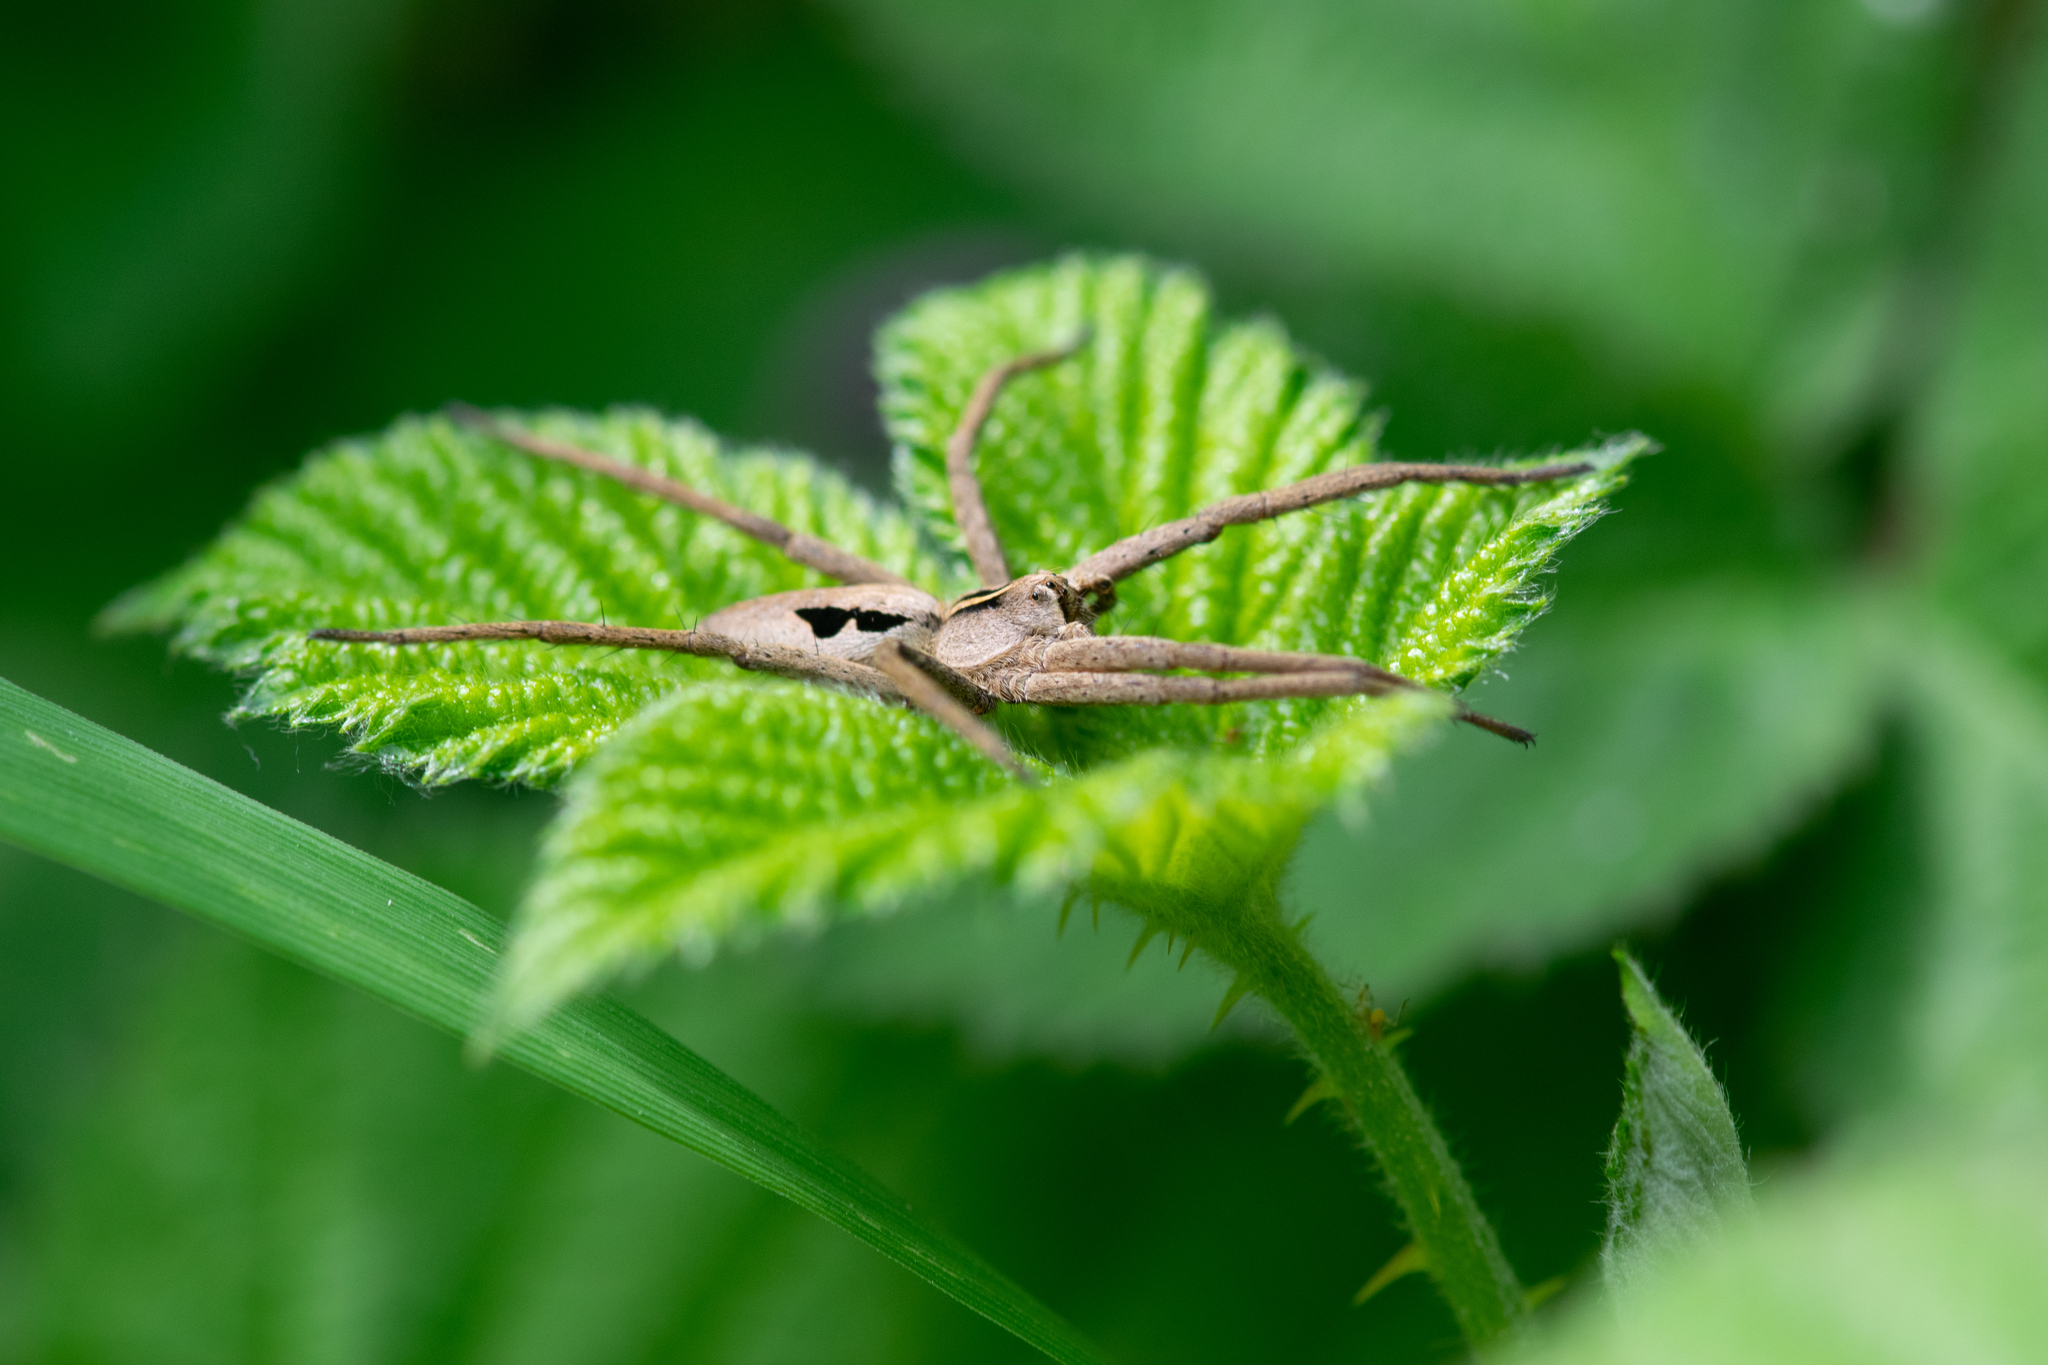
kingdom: Animalia
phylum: Arthropoda
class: Arachnida
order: Araneae
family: Pisauridae
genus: Pisaura
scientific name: Pisaura mirabilis
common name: Tent spider
